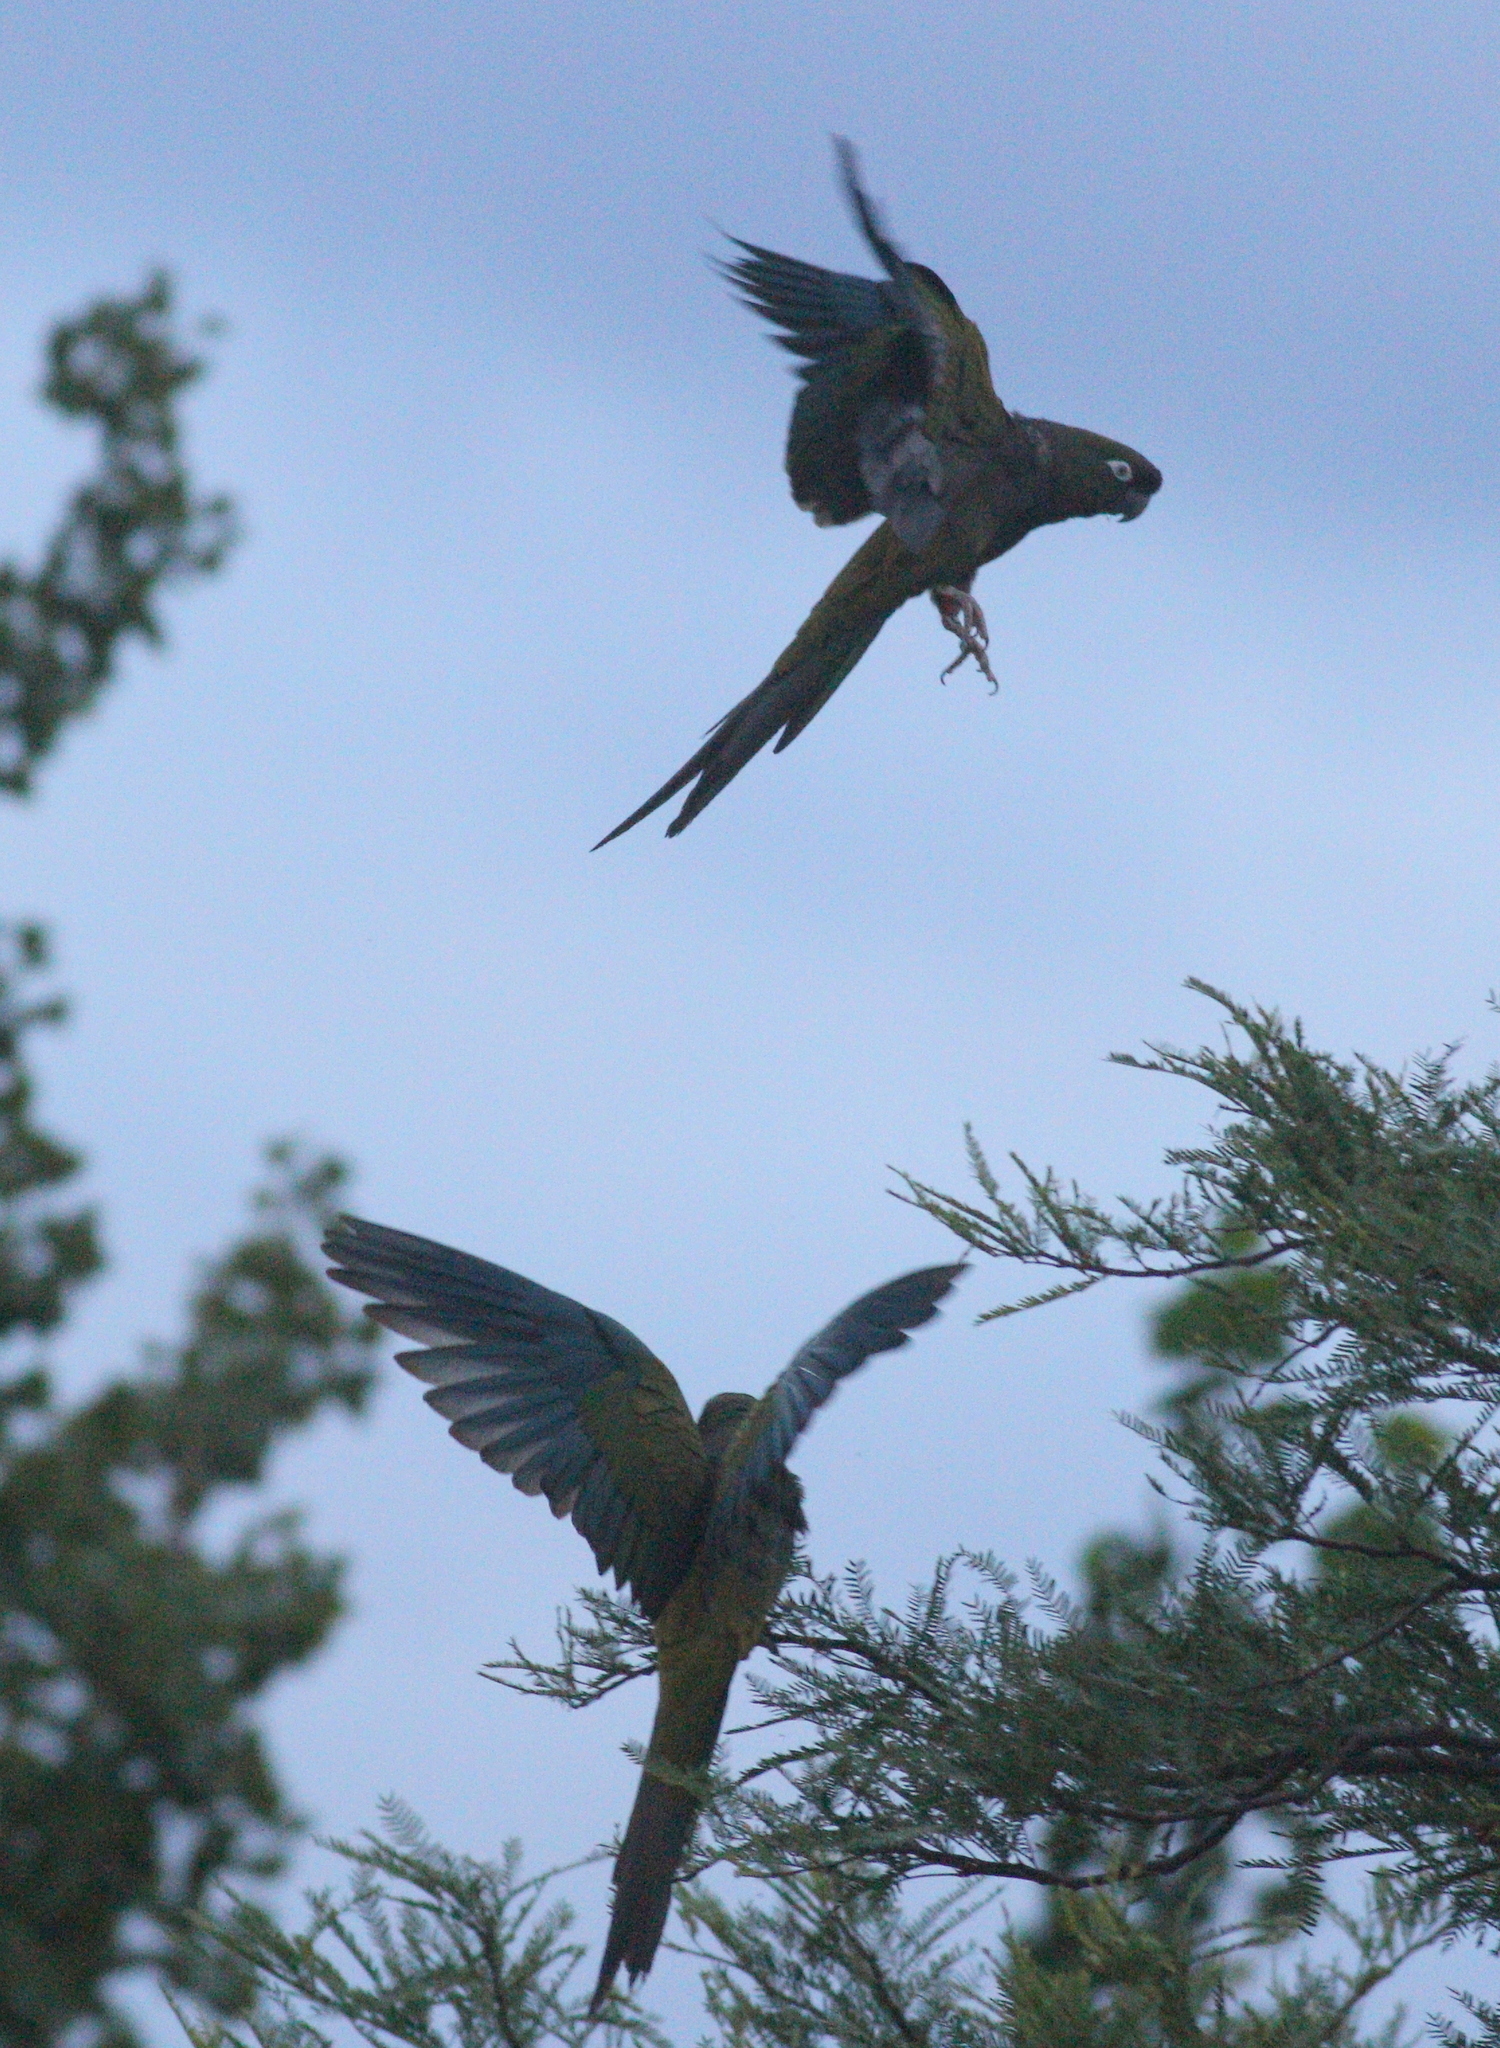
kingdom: Animalia
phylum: Chordata
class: Aves
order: Psittaciformes
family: Psittacidae
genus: Cyanoliseus
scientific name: Cyanoliseus patagonus
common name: Burrowing parrot
